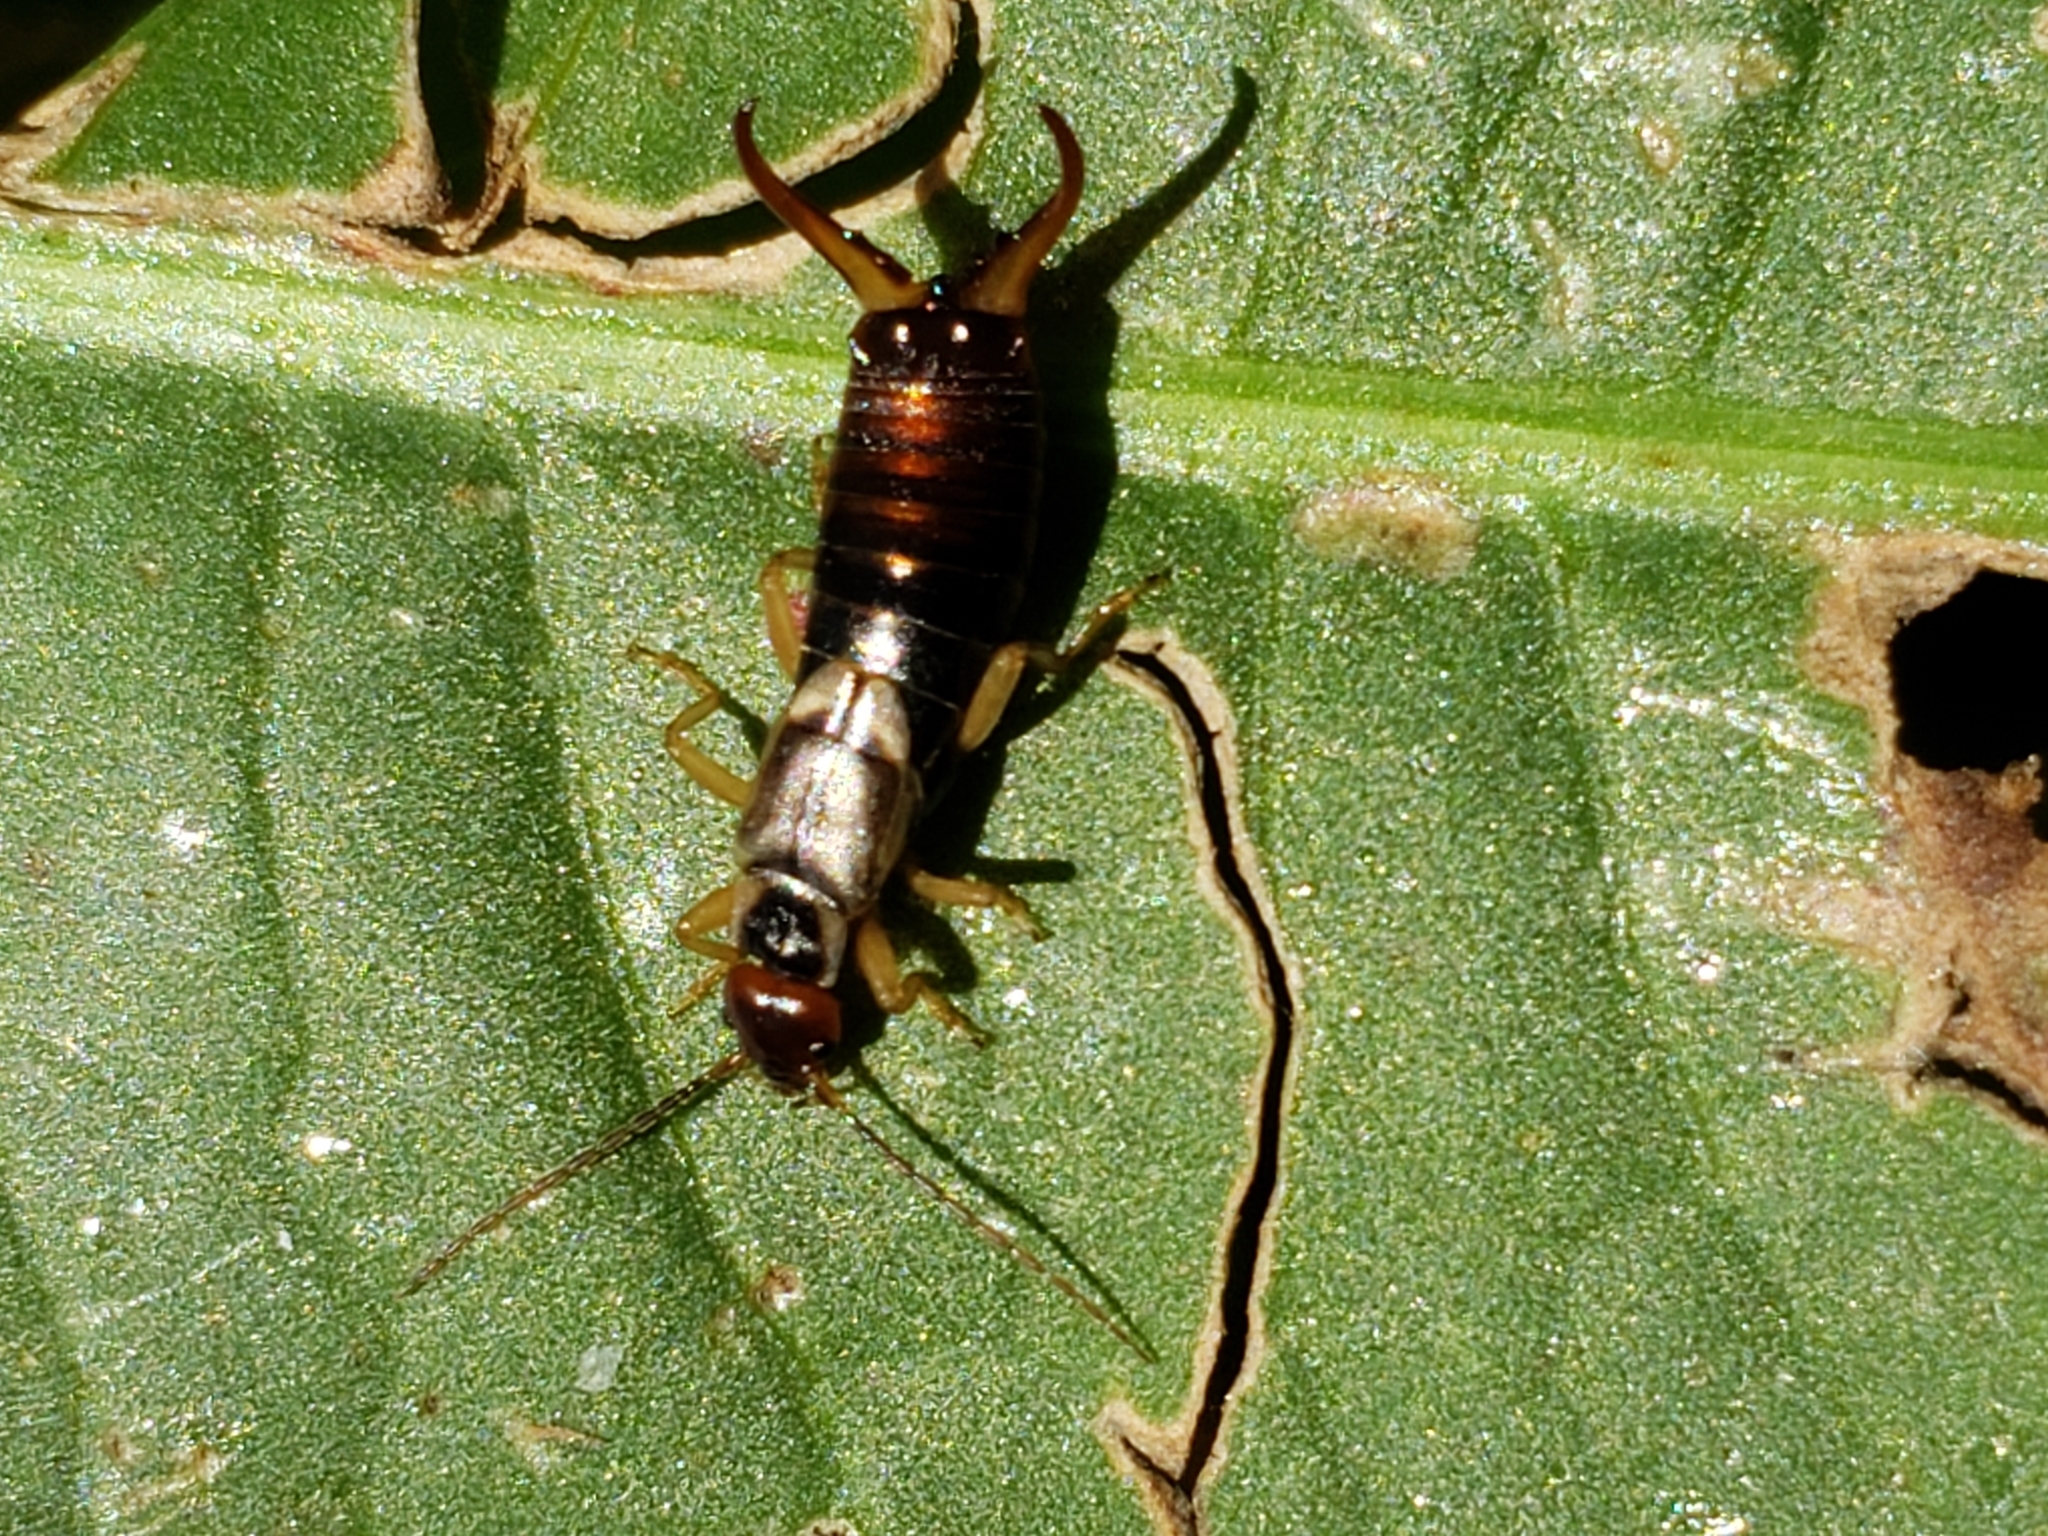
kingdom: Animalia
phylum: Arthropoda
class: Insecta
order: Dermaptera
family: Forficulidae
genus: Forficula
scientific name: Forficula
